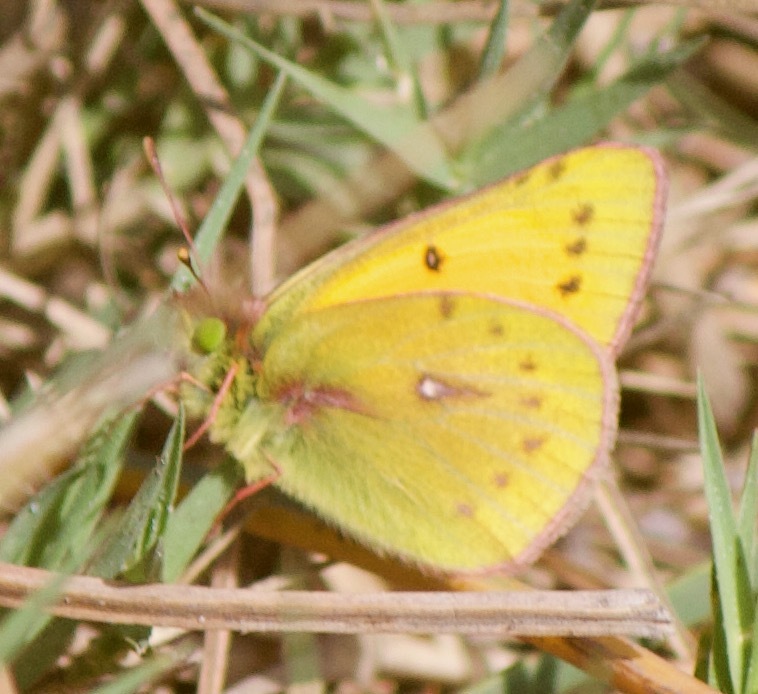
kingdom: Animalia
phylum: Arthropoda
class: Insecta
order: Lepidoptera
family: Pieridae
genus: Colias
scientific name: Colias vauthierii
